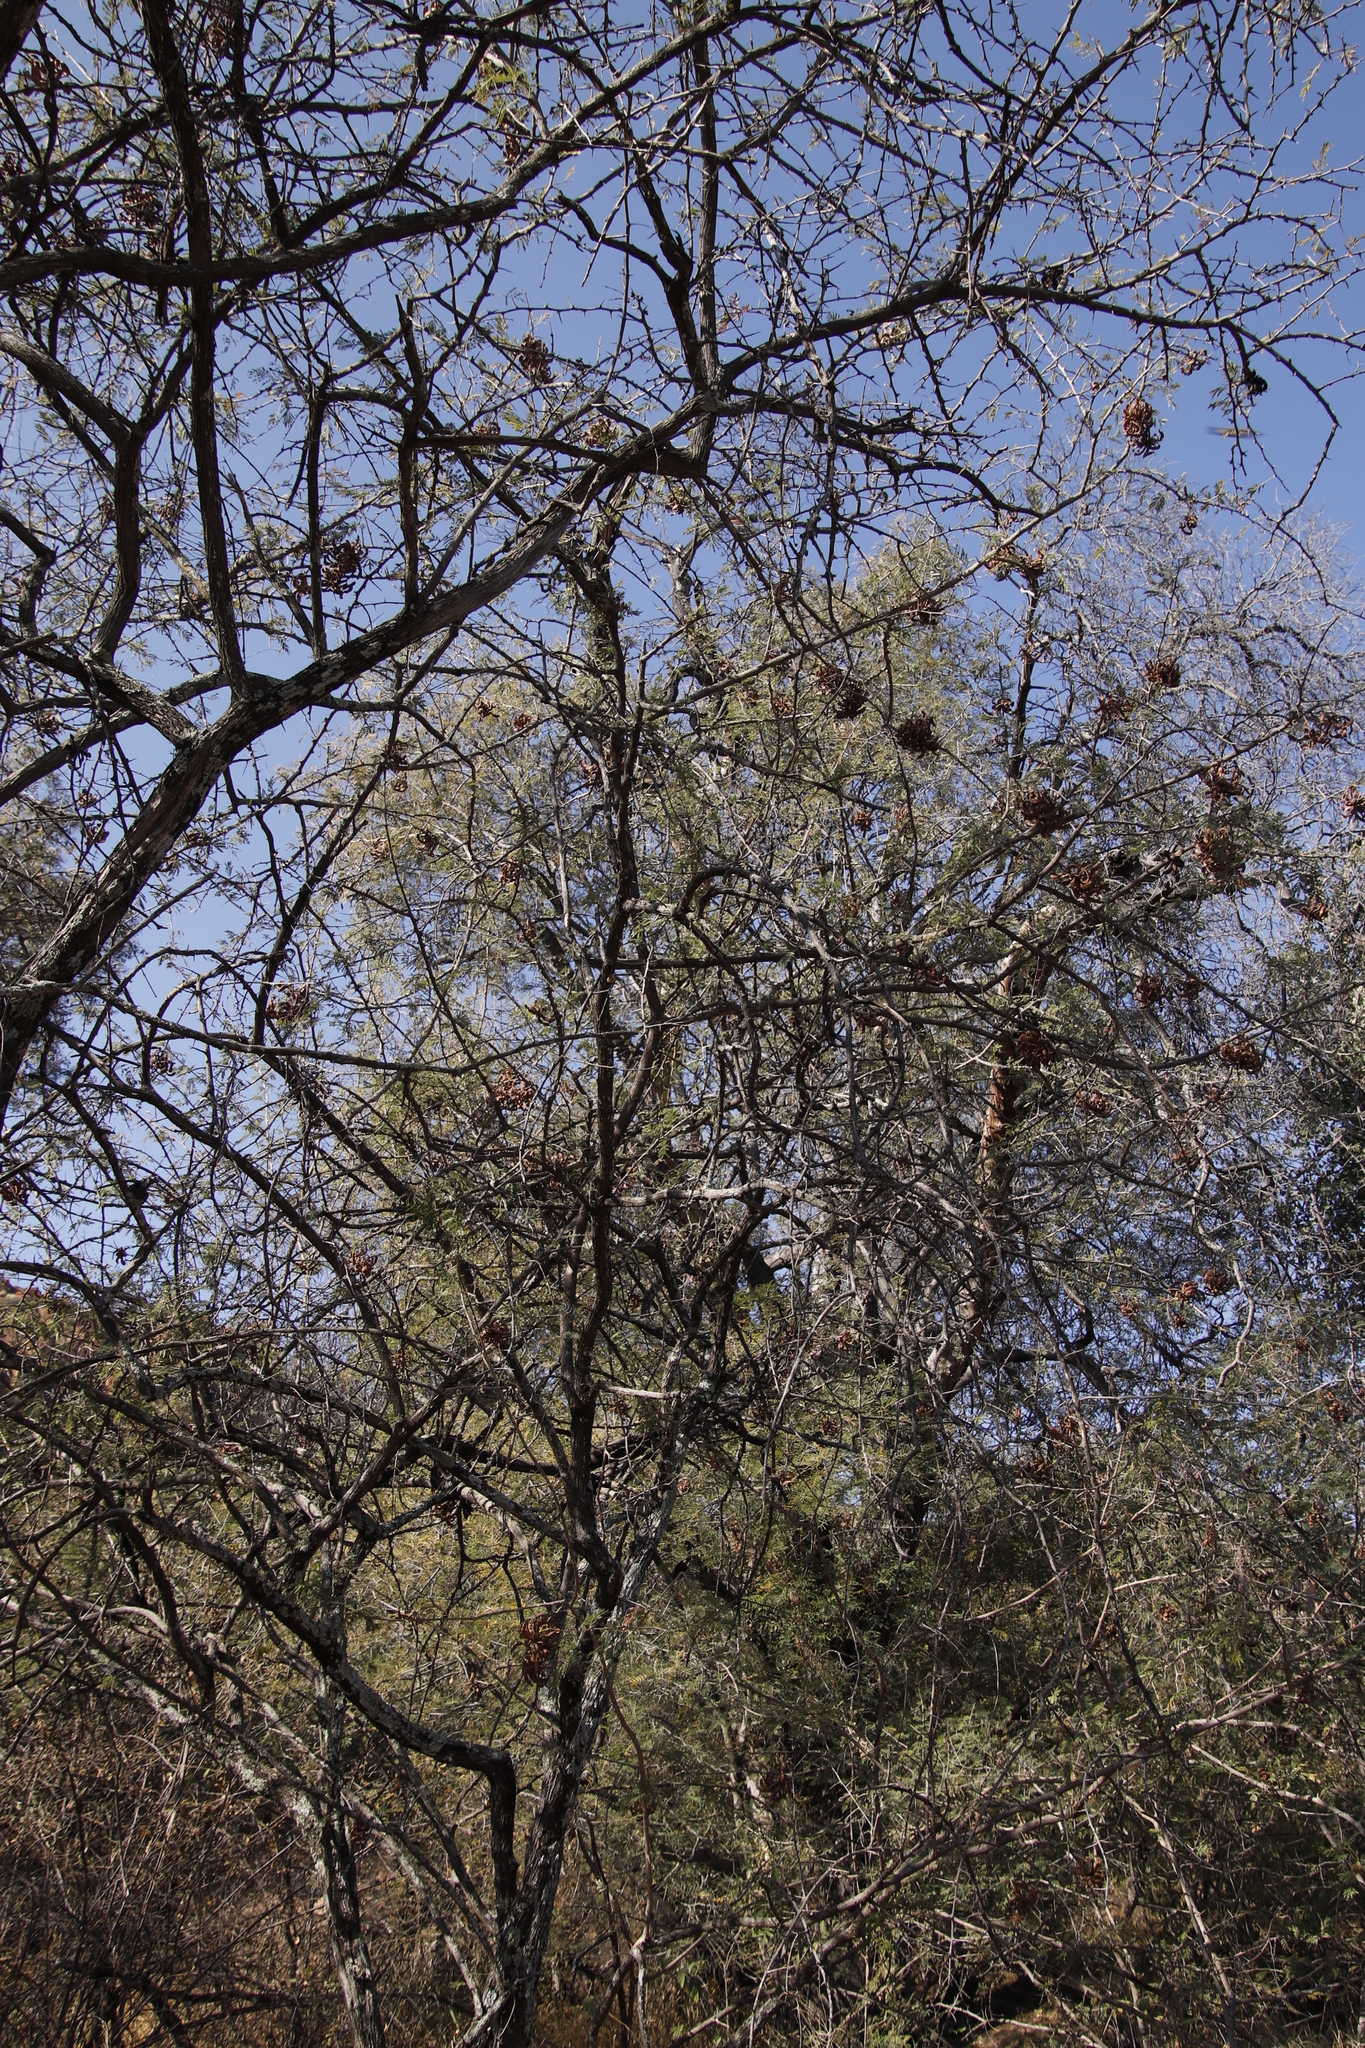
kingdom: Plantae
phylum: Tracheophyta
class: Magnoliopsida
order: Fabales
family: Fabaceae
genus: Dichrostachys
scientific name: Dichrostachys cinerea
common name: Sicklebush
